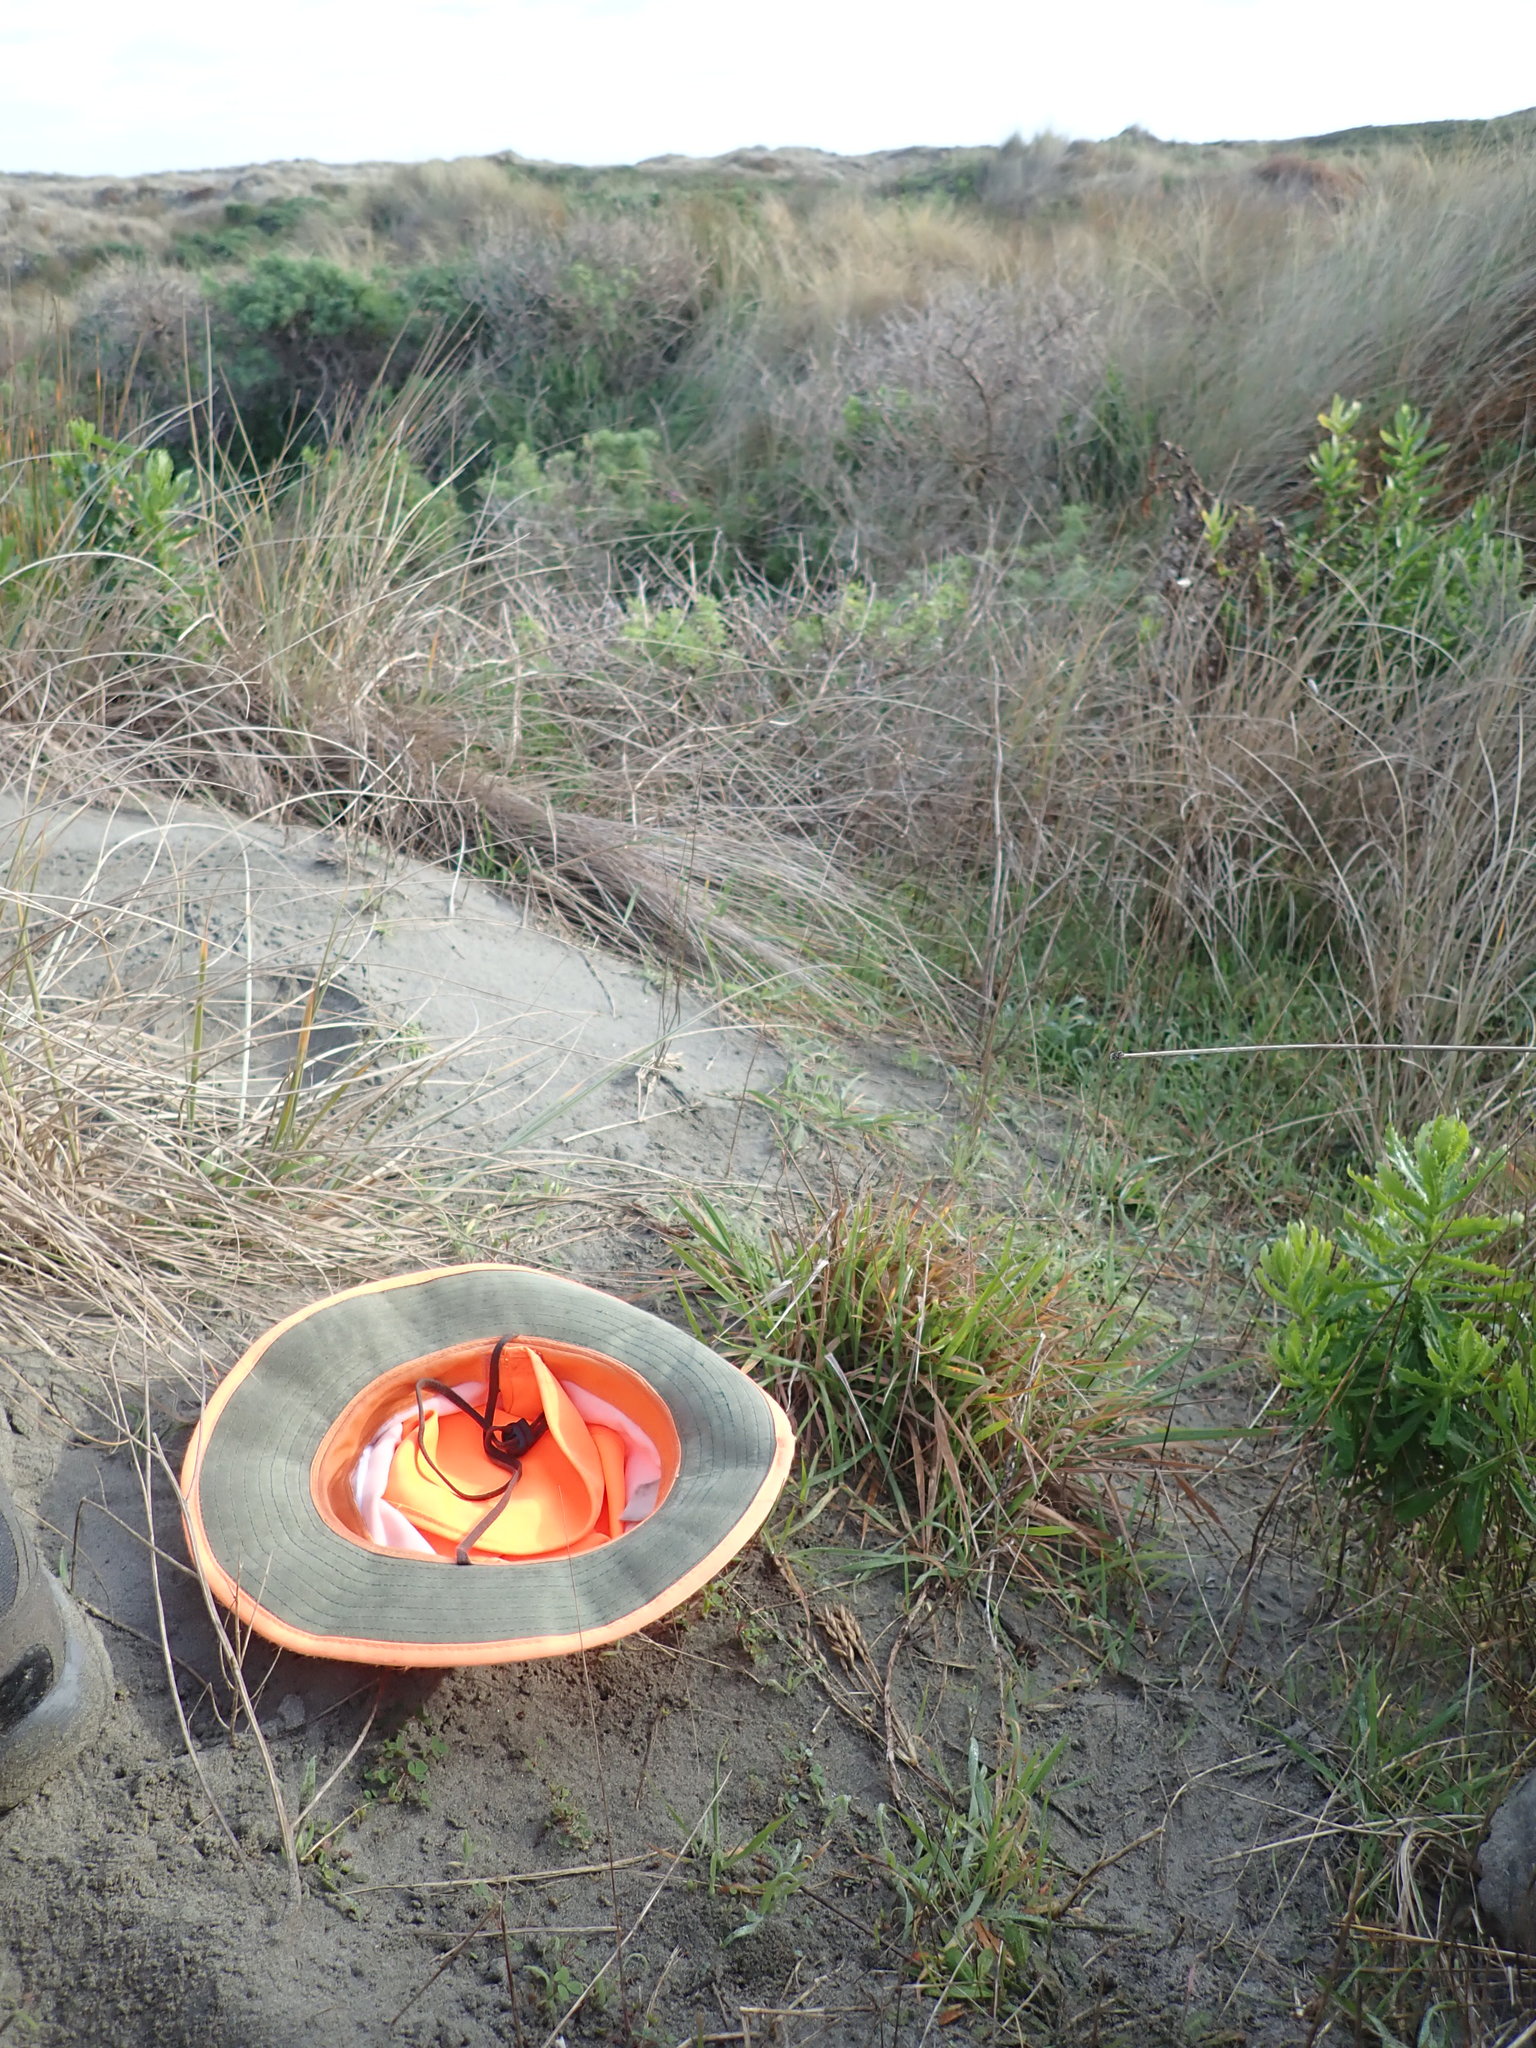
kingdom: Plantae
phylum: Tracheophyta
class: Liliopsida
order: Poales
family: Poaceae
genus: Lachnagrostis
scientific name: Lachnagrostis billardierei
